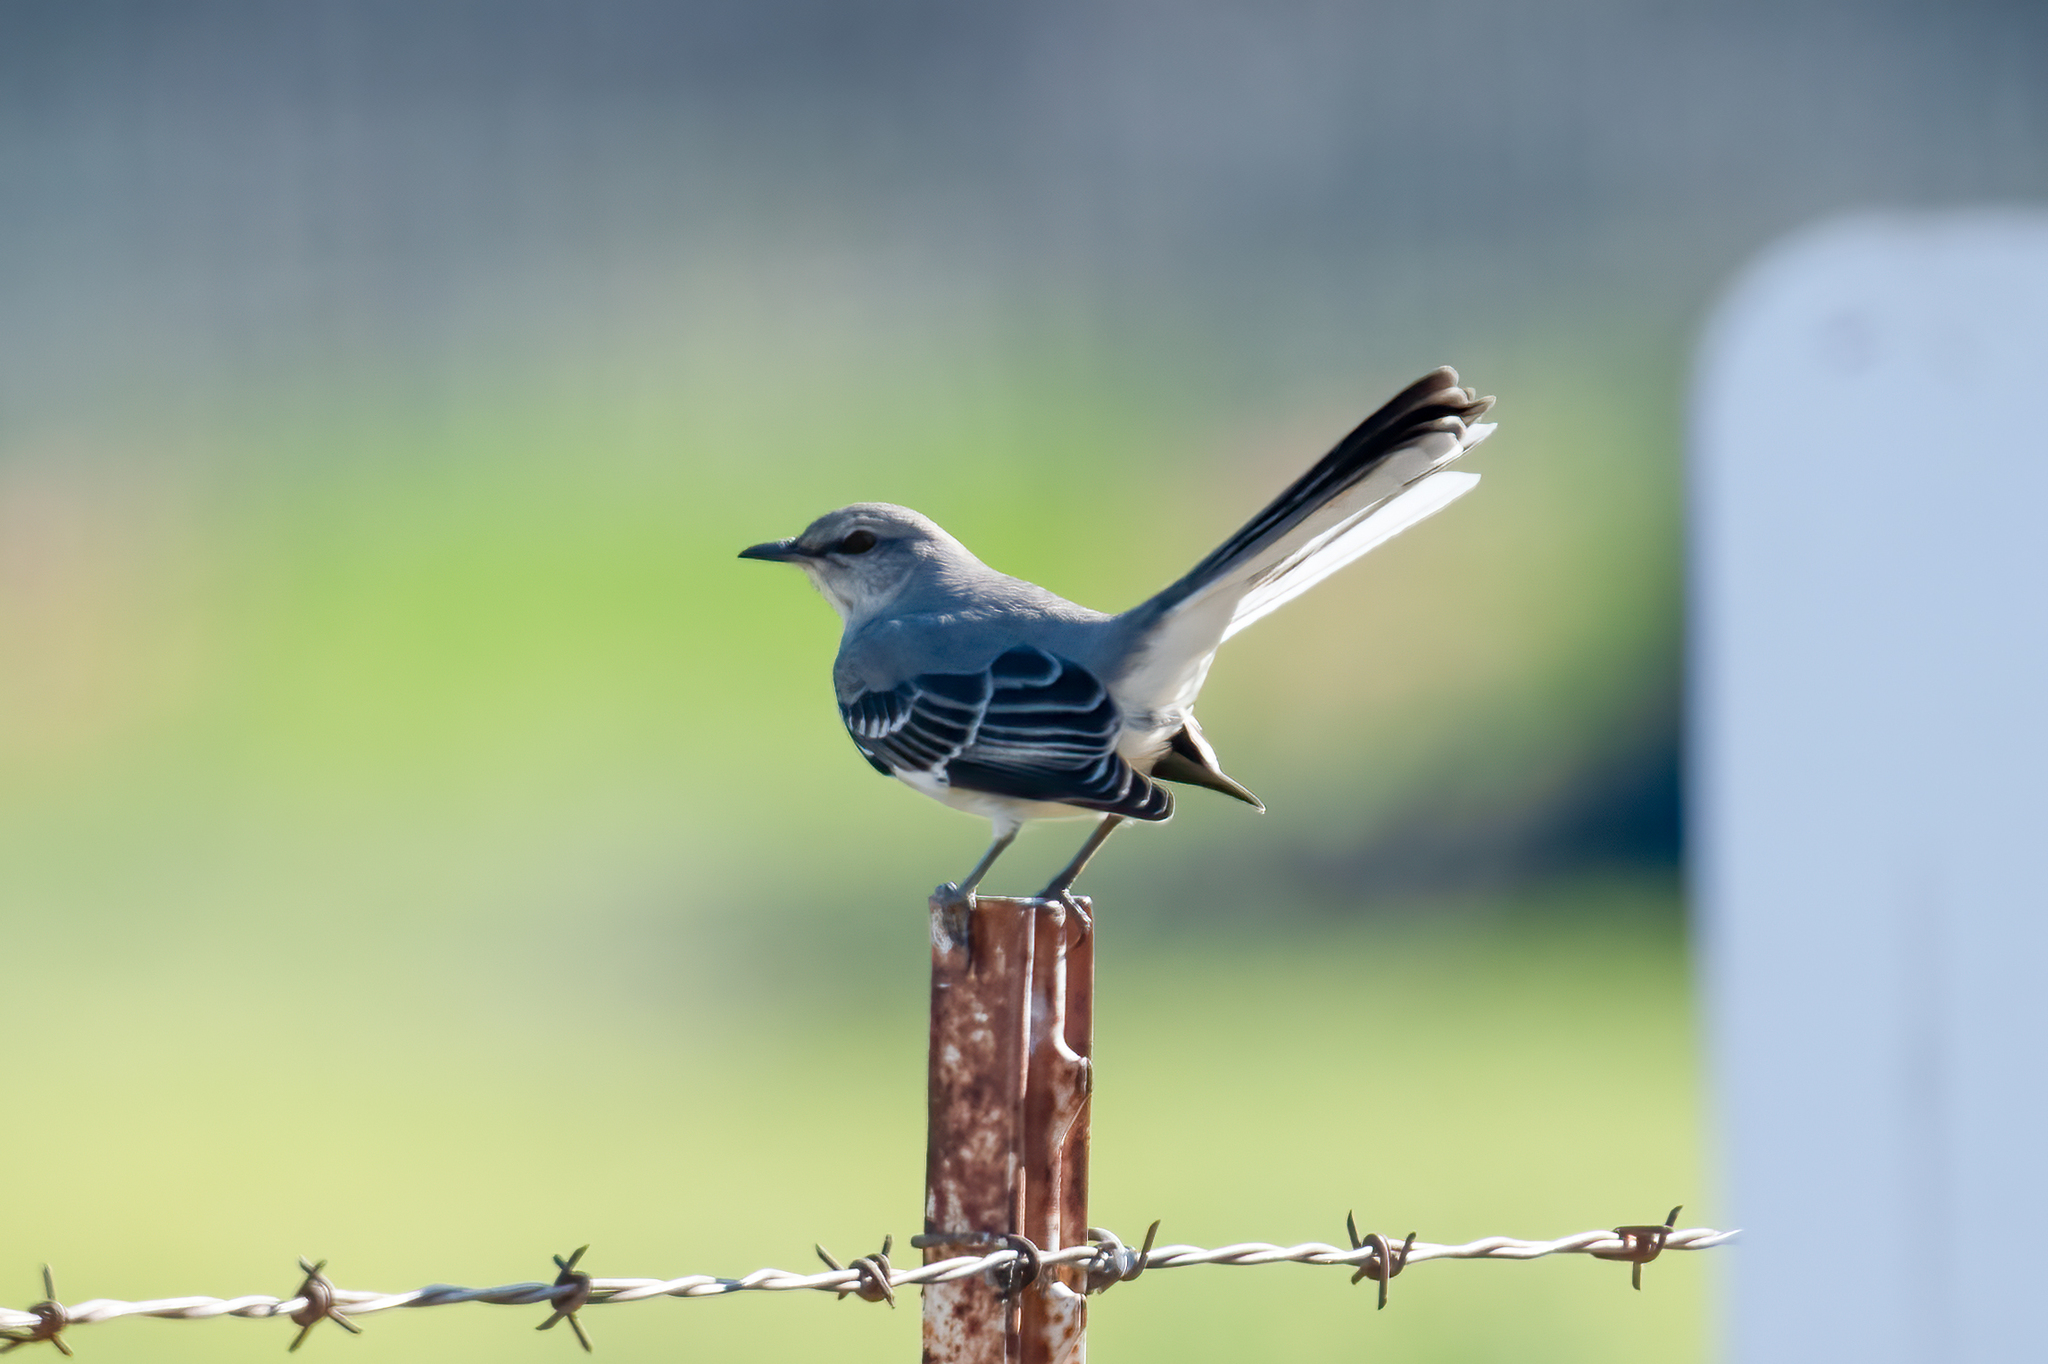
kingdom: Animalia
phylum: Chordata
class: Aves
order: Passeriformes
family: Mimidae
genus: Mimus
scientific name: Mimus polyglottos
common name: Northern mockingbird
